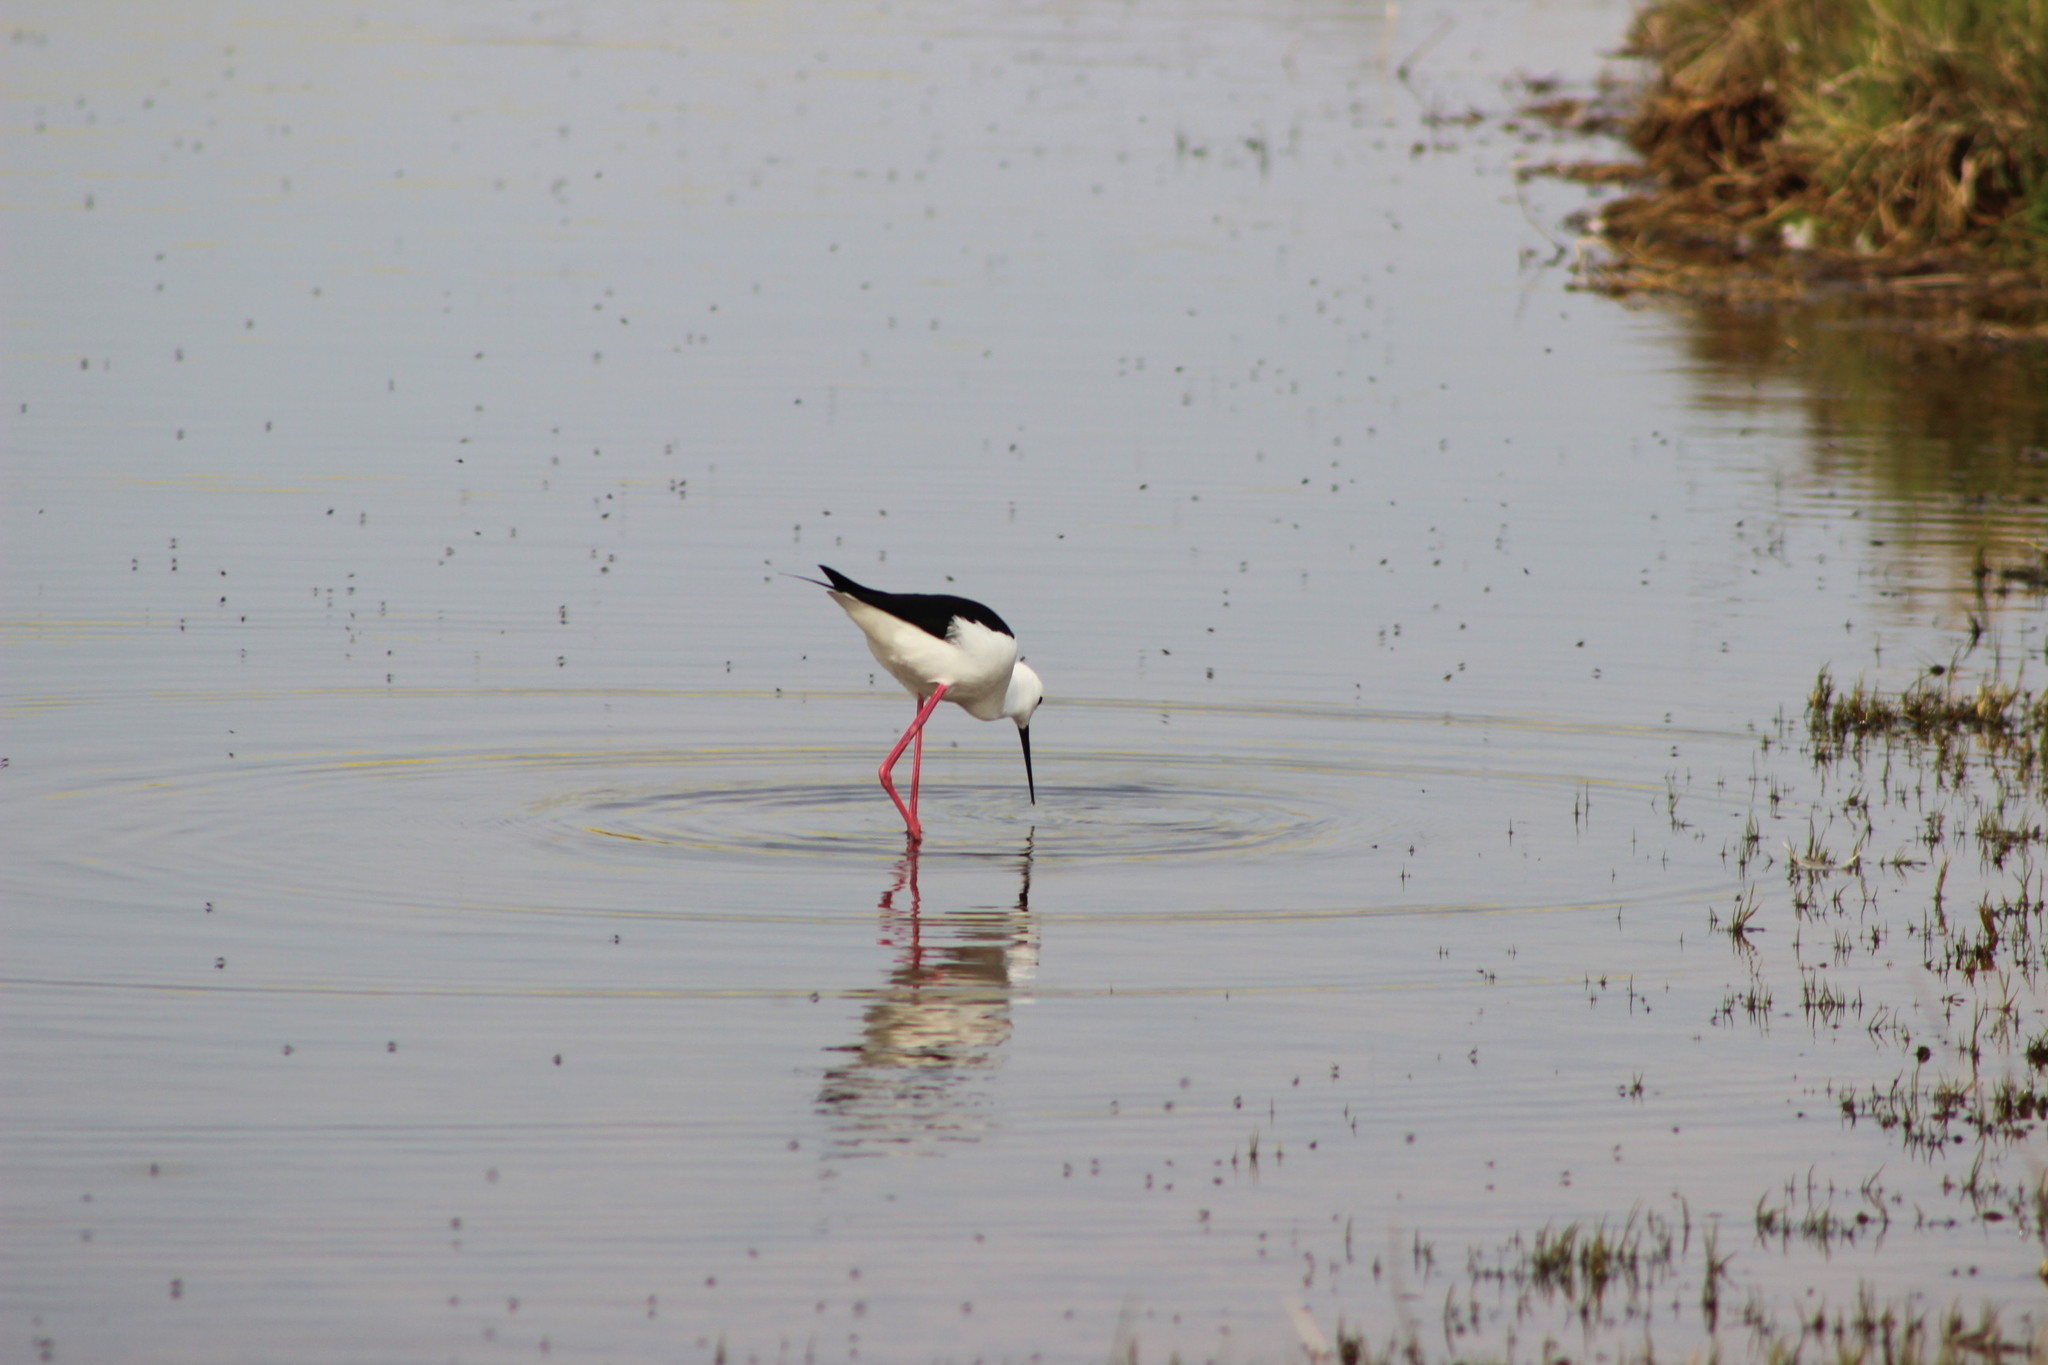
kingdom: Animalia
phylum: Chordata
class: Aves
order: Charadriiformes
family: Recurvirostridae
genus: Himantopus
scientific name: Himantopus himantopus
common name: Black-winged stilt
